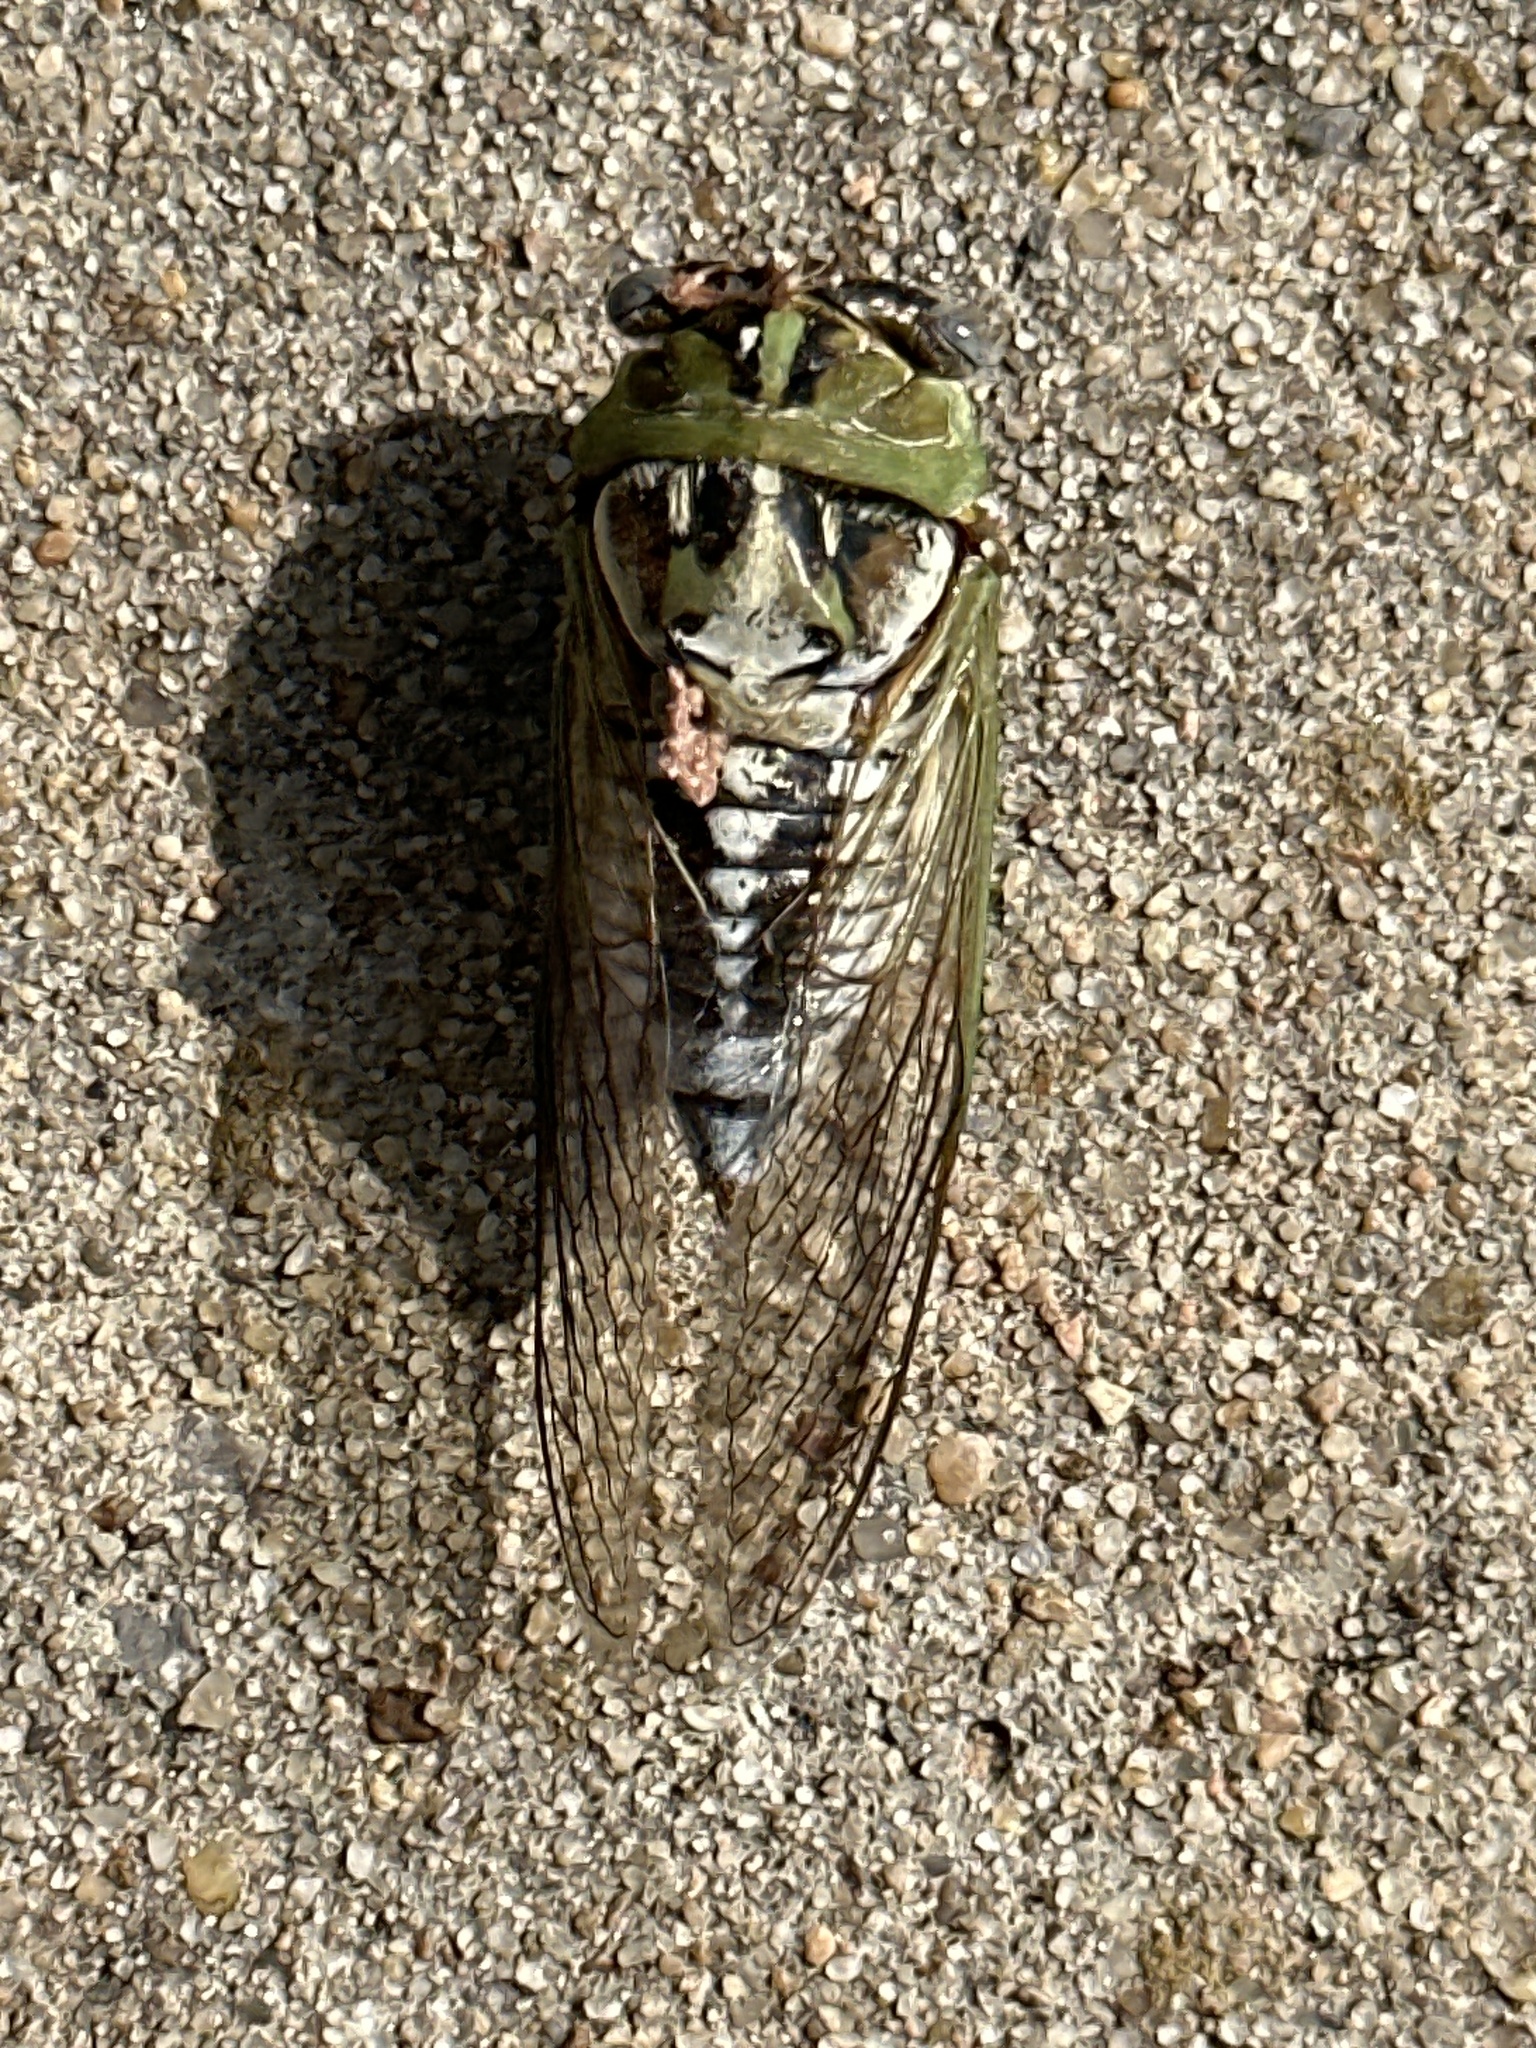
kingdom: Animalia
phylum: Arthropoda
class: Insecta
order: Hemiptera
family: Cicadidae
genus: Megatibicen
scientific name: Megatibicen dealbatus
